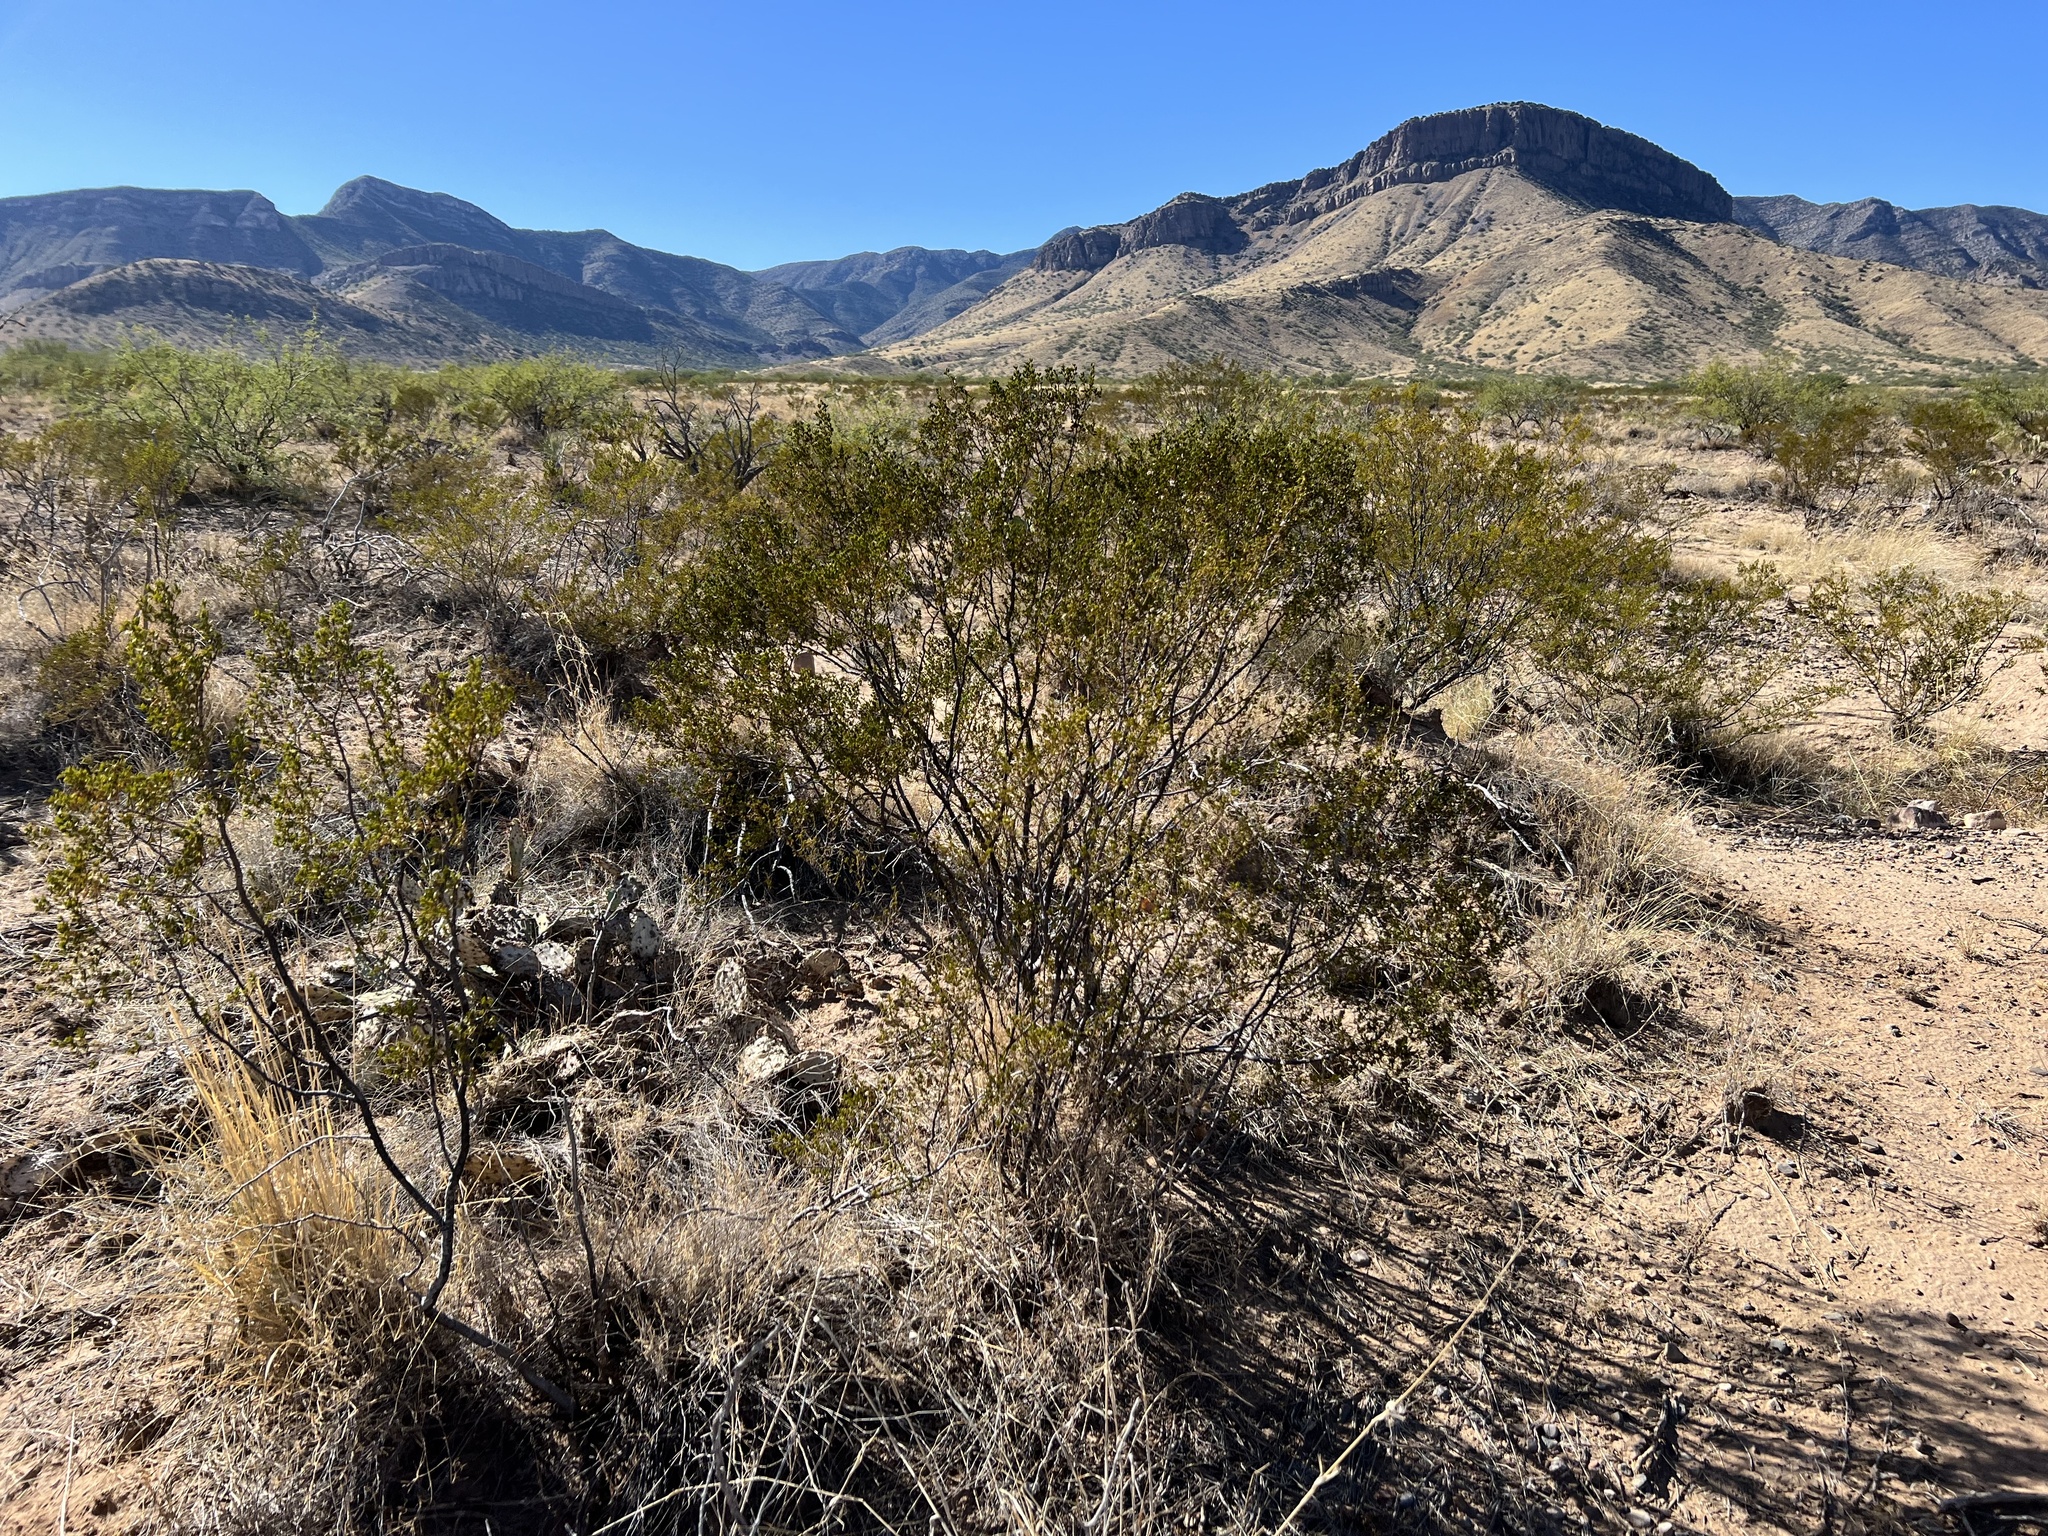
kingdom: Plantae
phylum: Tracheophyta
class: Magnoliopsida
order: Zygophyllales
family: Zygophyllaceae
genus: Larrea
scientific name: Larrea tridentata
